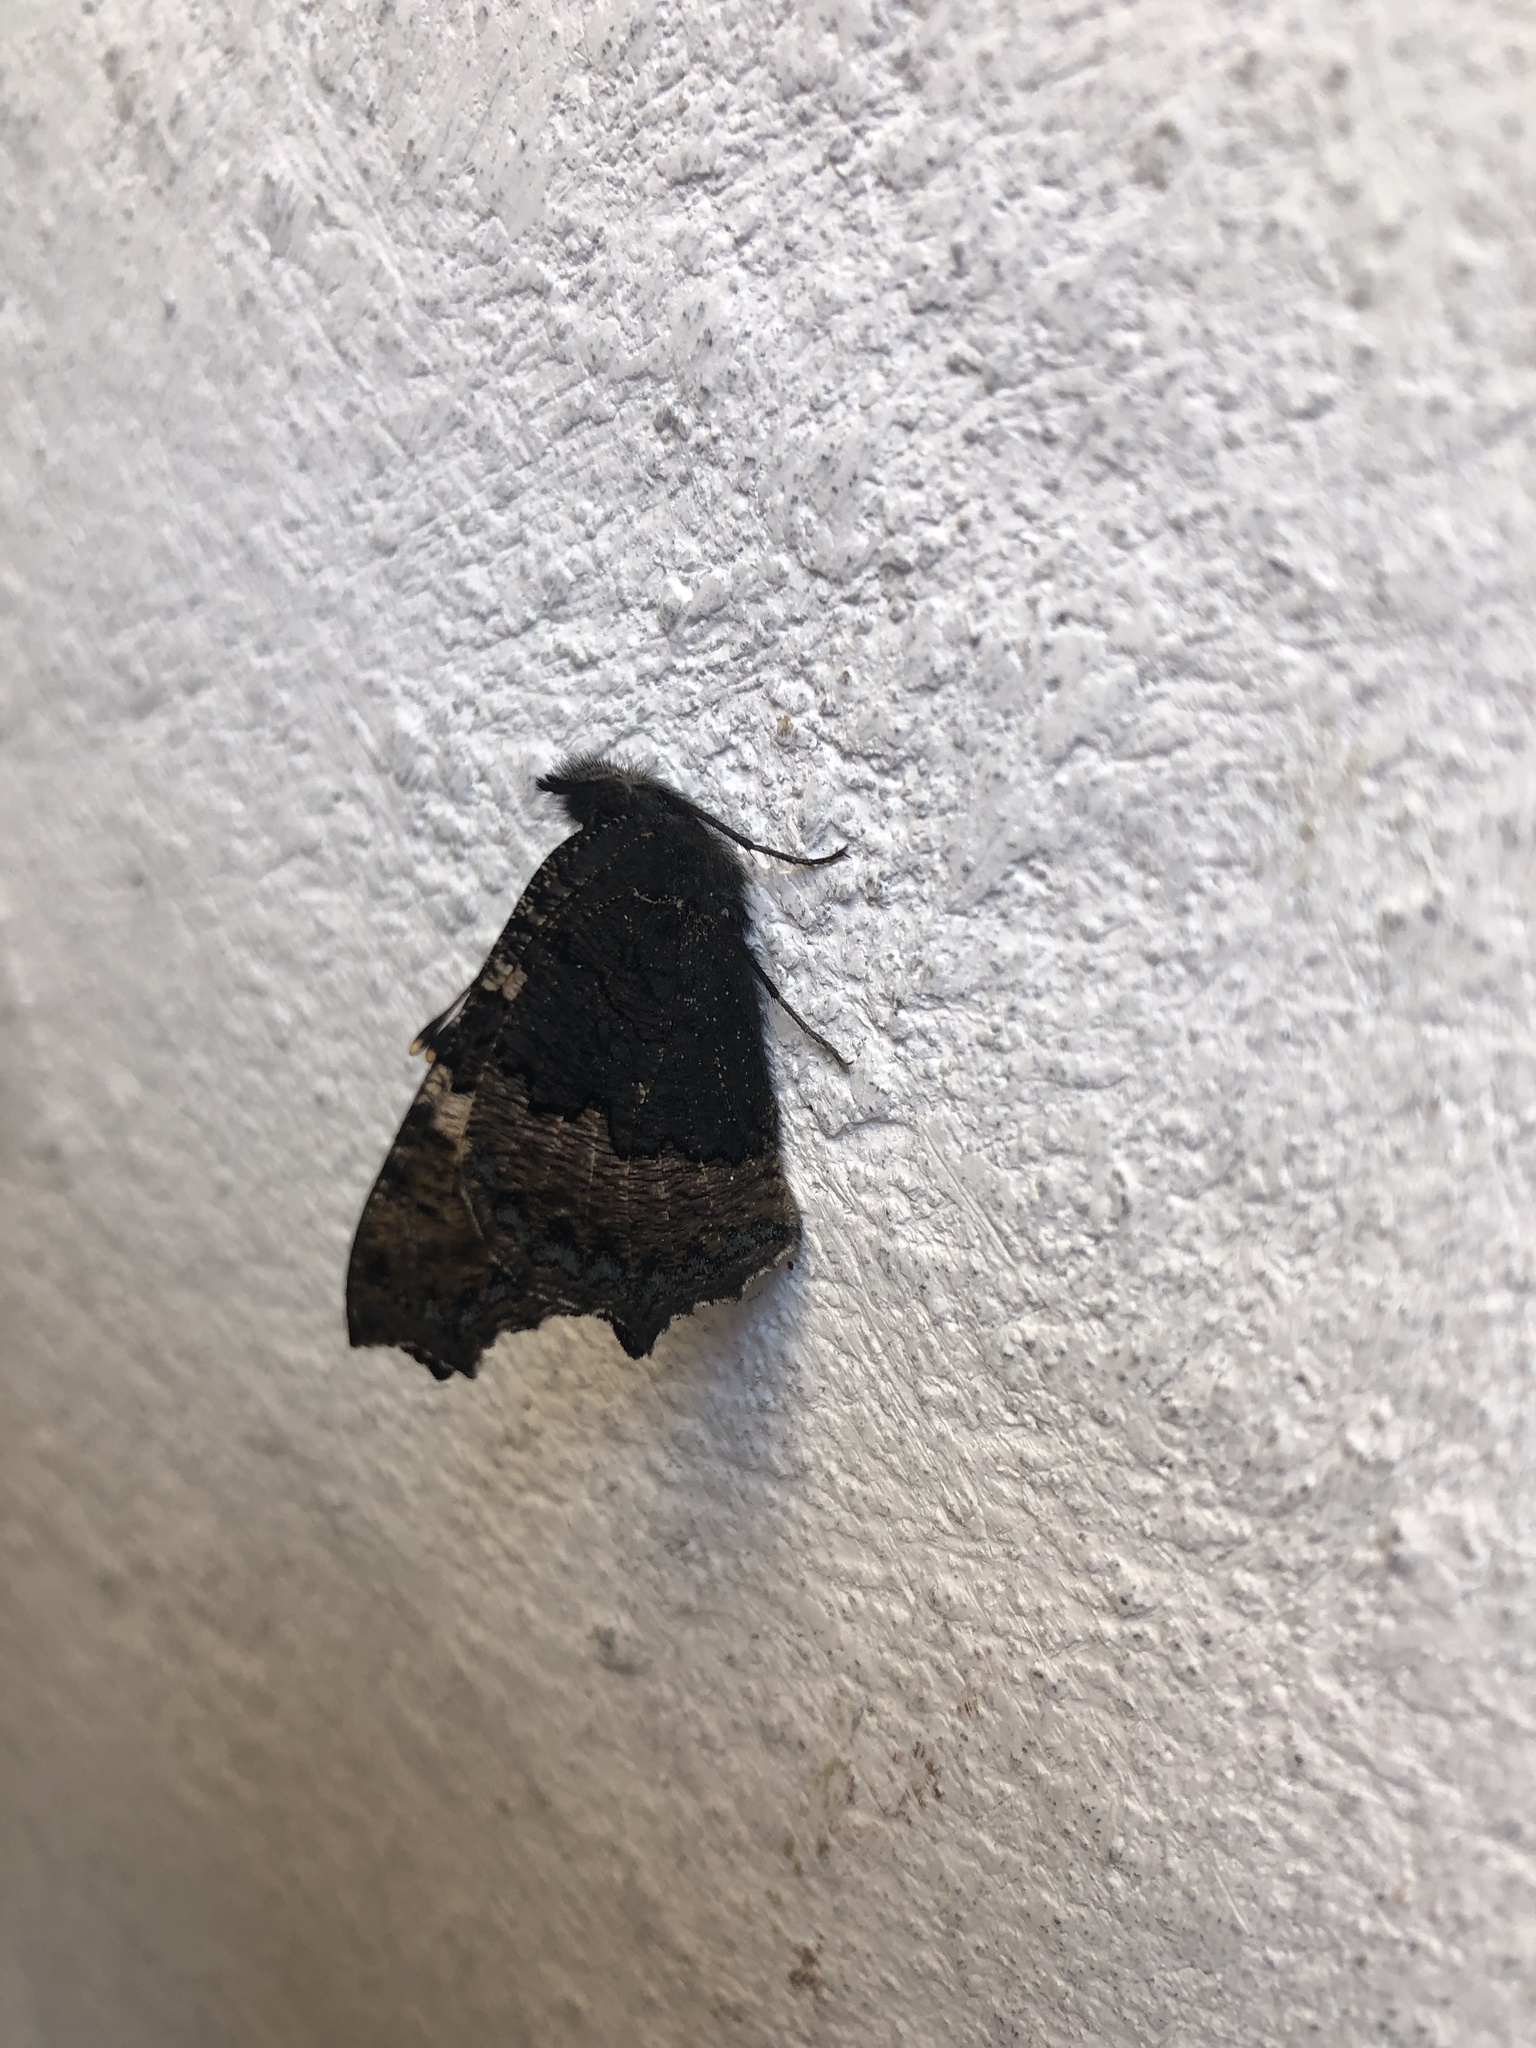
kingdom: Animalia
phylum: Arthropoda
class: Insecta
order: Lepidoptera
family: Nymphalidae
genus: Aglais
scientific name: Aglais urticae
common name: Small tortoiseshell
